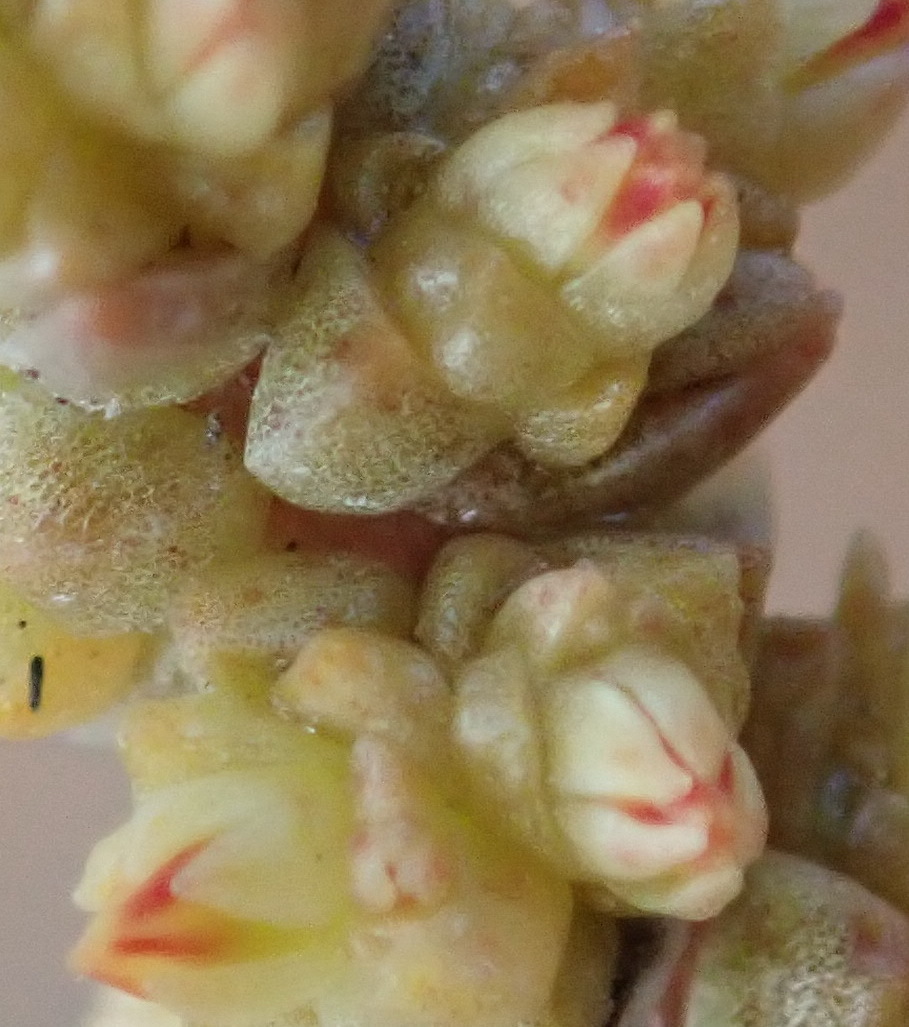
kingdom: Plantae
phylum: Tracheophyta
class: Magnoliopsida
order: Saxifragales
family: Crassulaceae
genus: Crassula
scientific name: Crassula muscosa
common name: Toy-cypress
